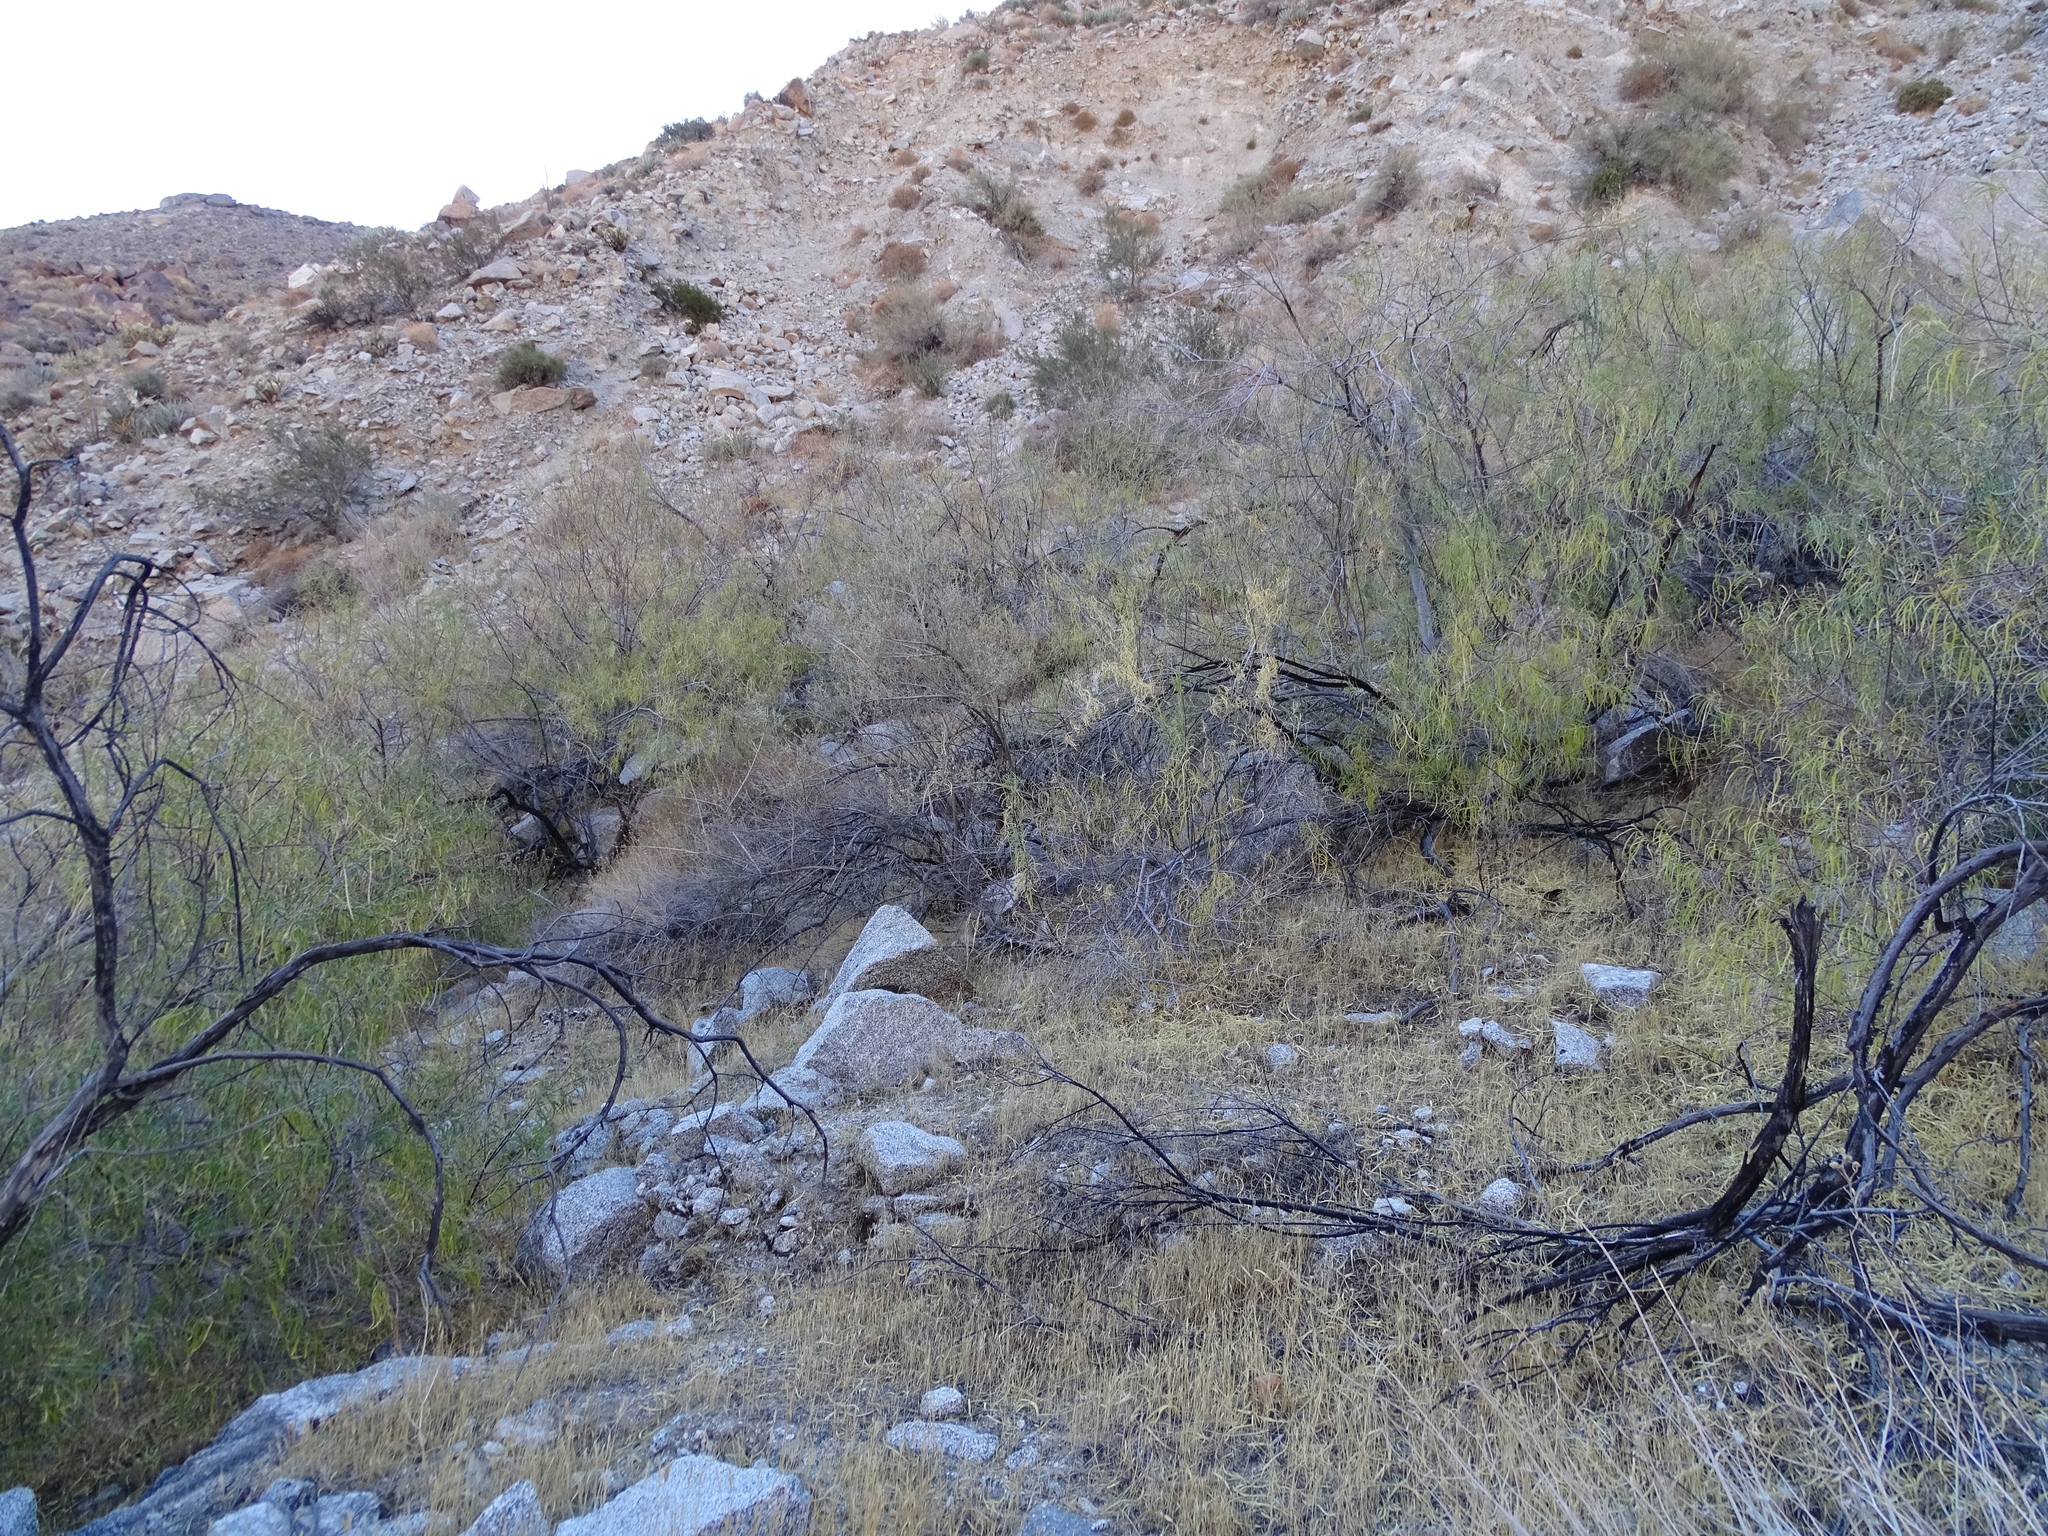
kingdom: Plantae
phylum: Tracheophyta
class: Magnoliopsida
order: Lamiales
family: Bignoniaceae
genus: Chilopsis
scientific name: Chilopsis linearis
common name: Desert-willow
